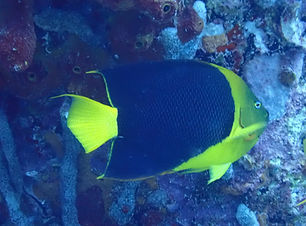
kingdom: Animalia
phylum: Chordata
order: Perciformes
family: Pomacanthidae
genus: Holacanthus
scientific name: Holacanthus tricolor
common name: Rock beauty
